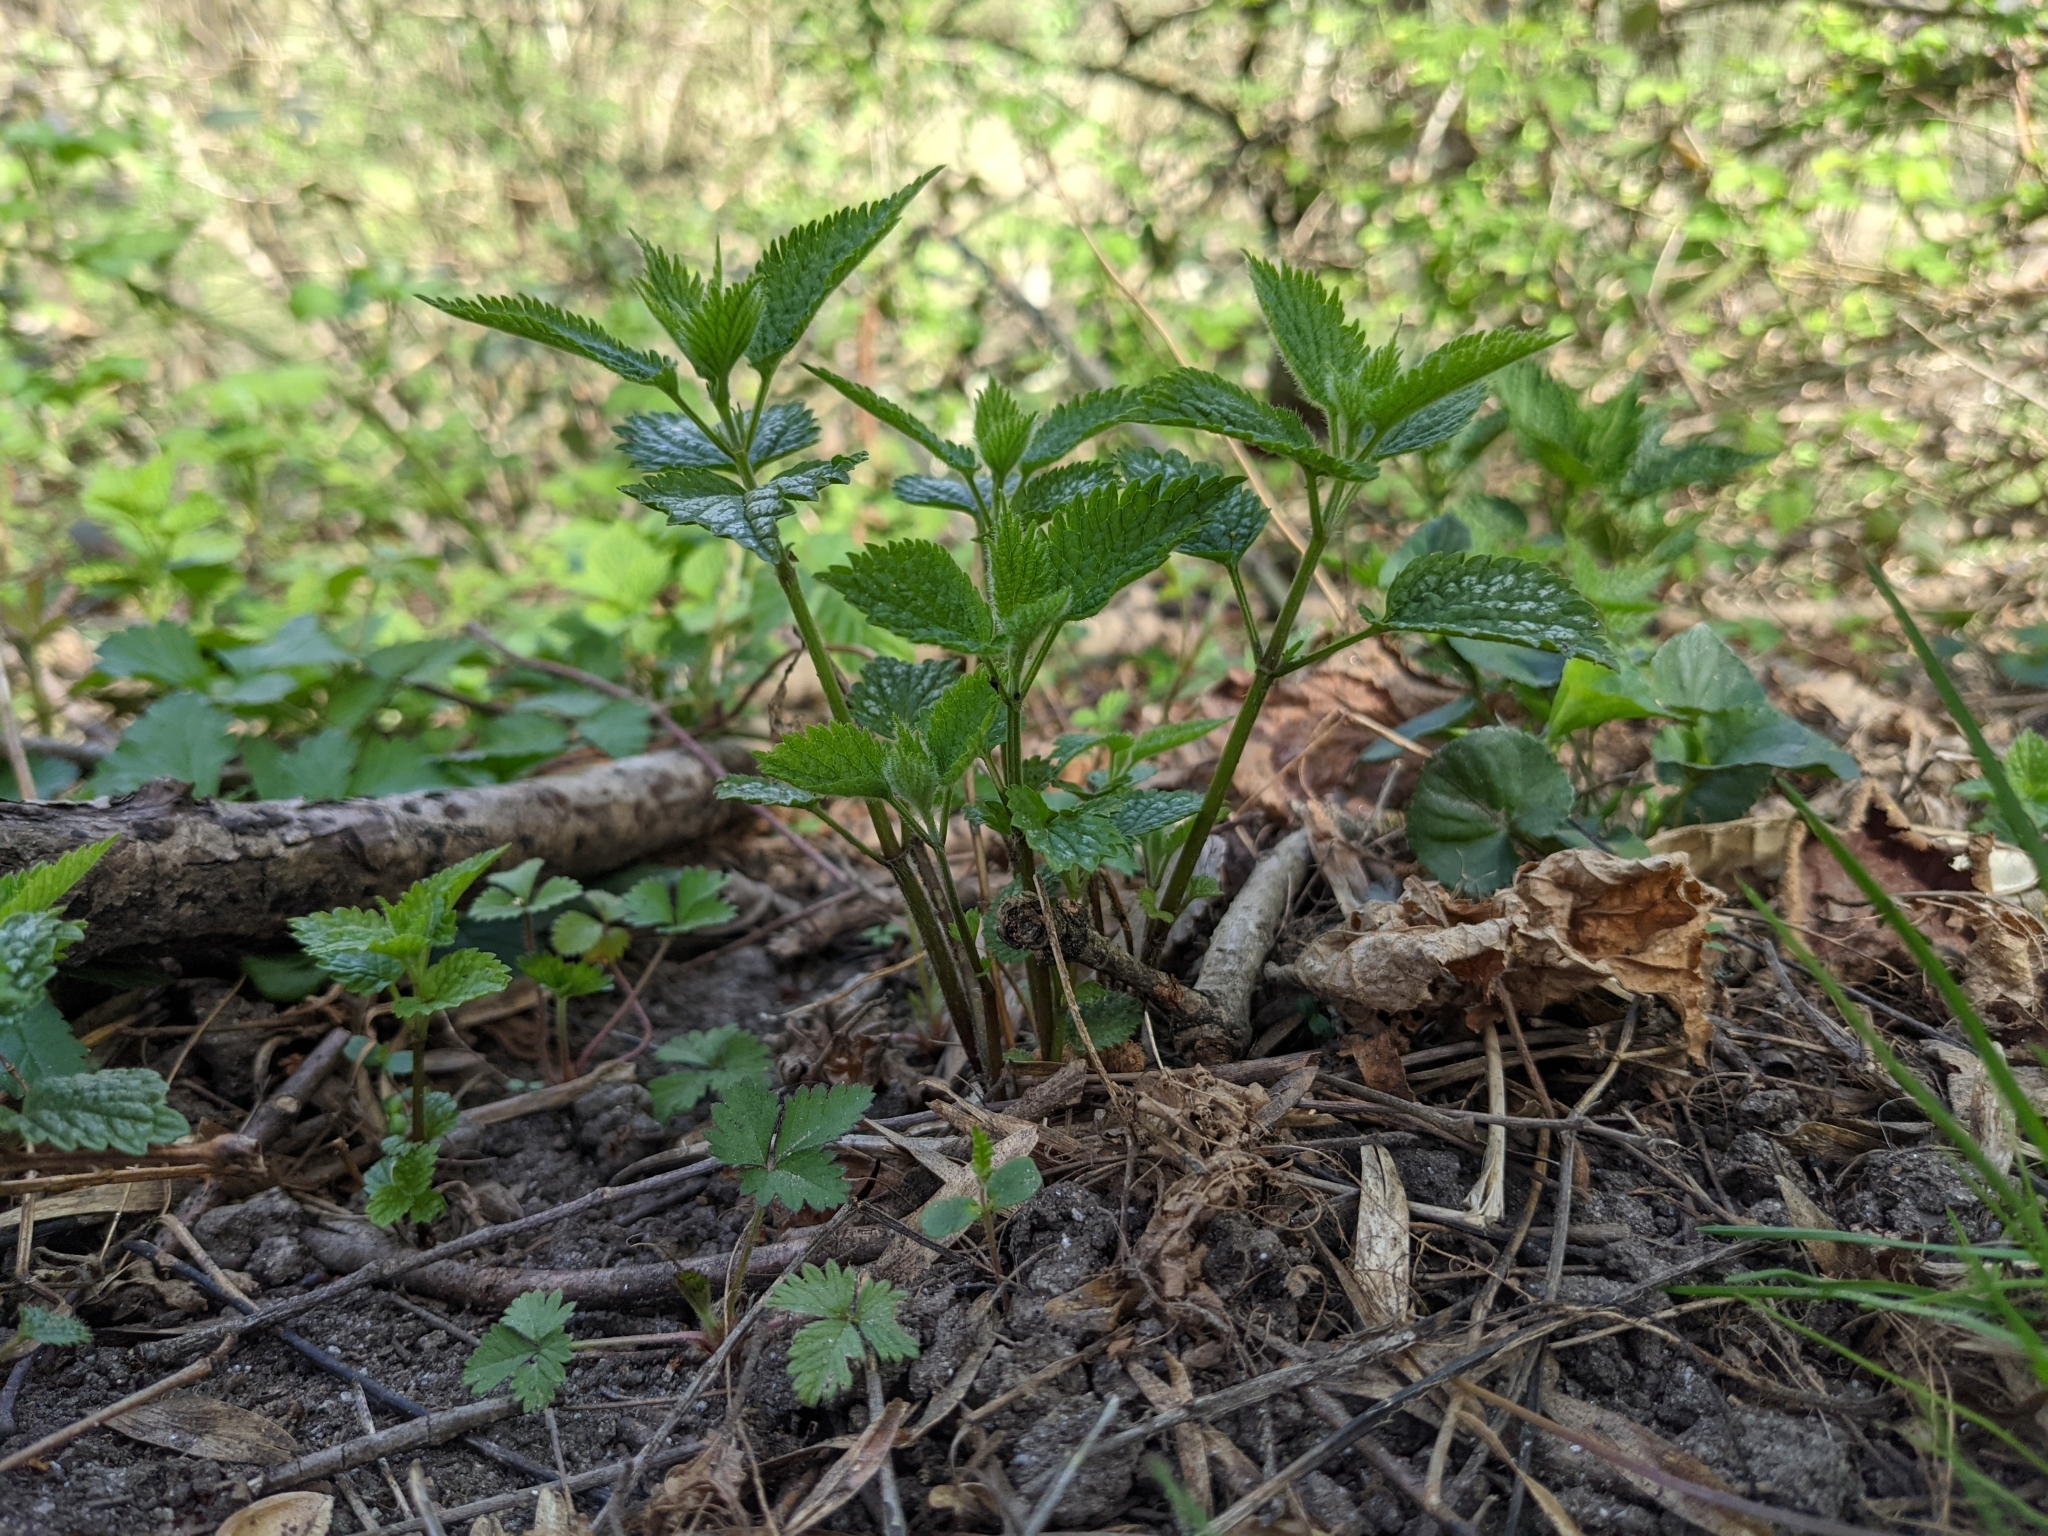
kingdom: Plantae
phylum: Tracheophyta
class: Magnoliopsida
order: Lamiales
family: Lamiaceae
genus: Lamium
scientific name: Lamium galeobdolon
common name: Yellow archangel
